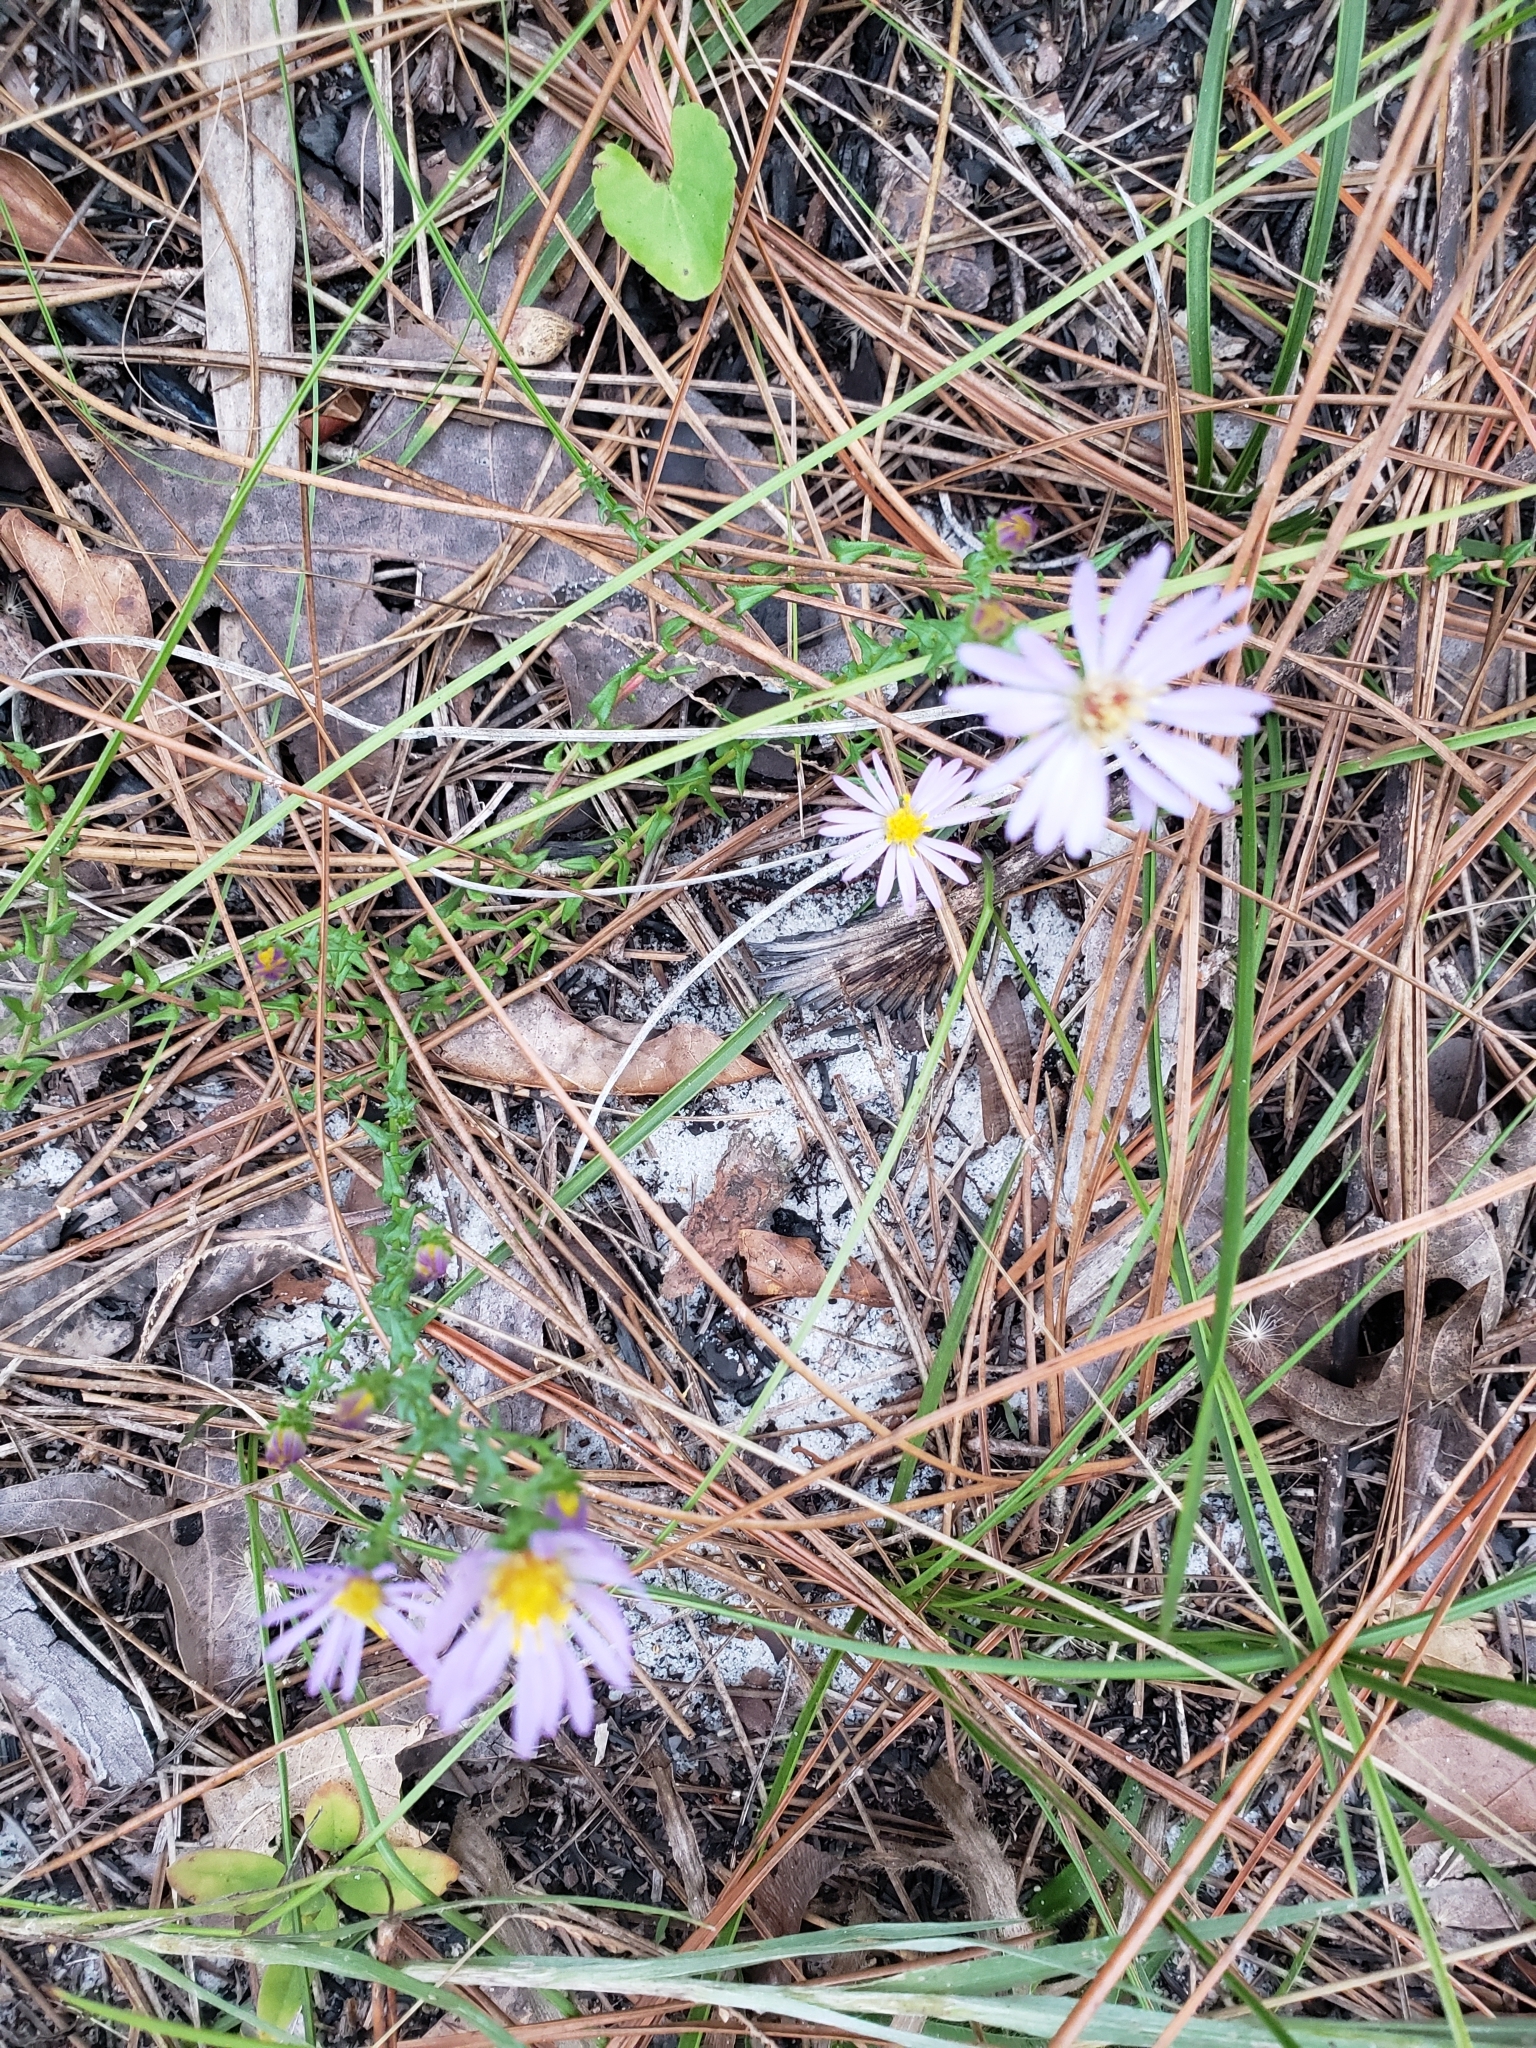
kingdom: Plantae
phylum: Tracheophyta
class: Magnoliopsida
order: Asterales
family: Asteraceae
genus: Symphyotrichum
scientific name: Symphyotrichum walteri
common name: Walter's aster
